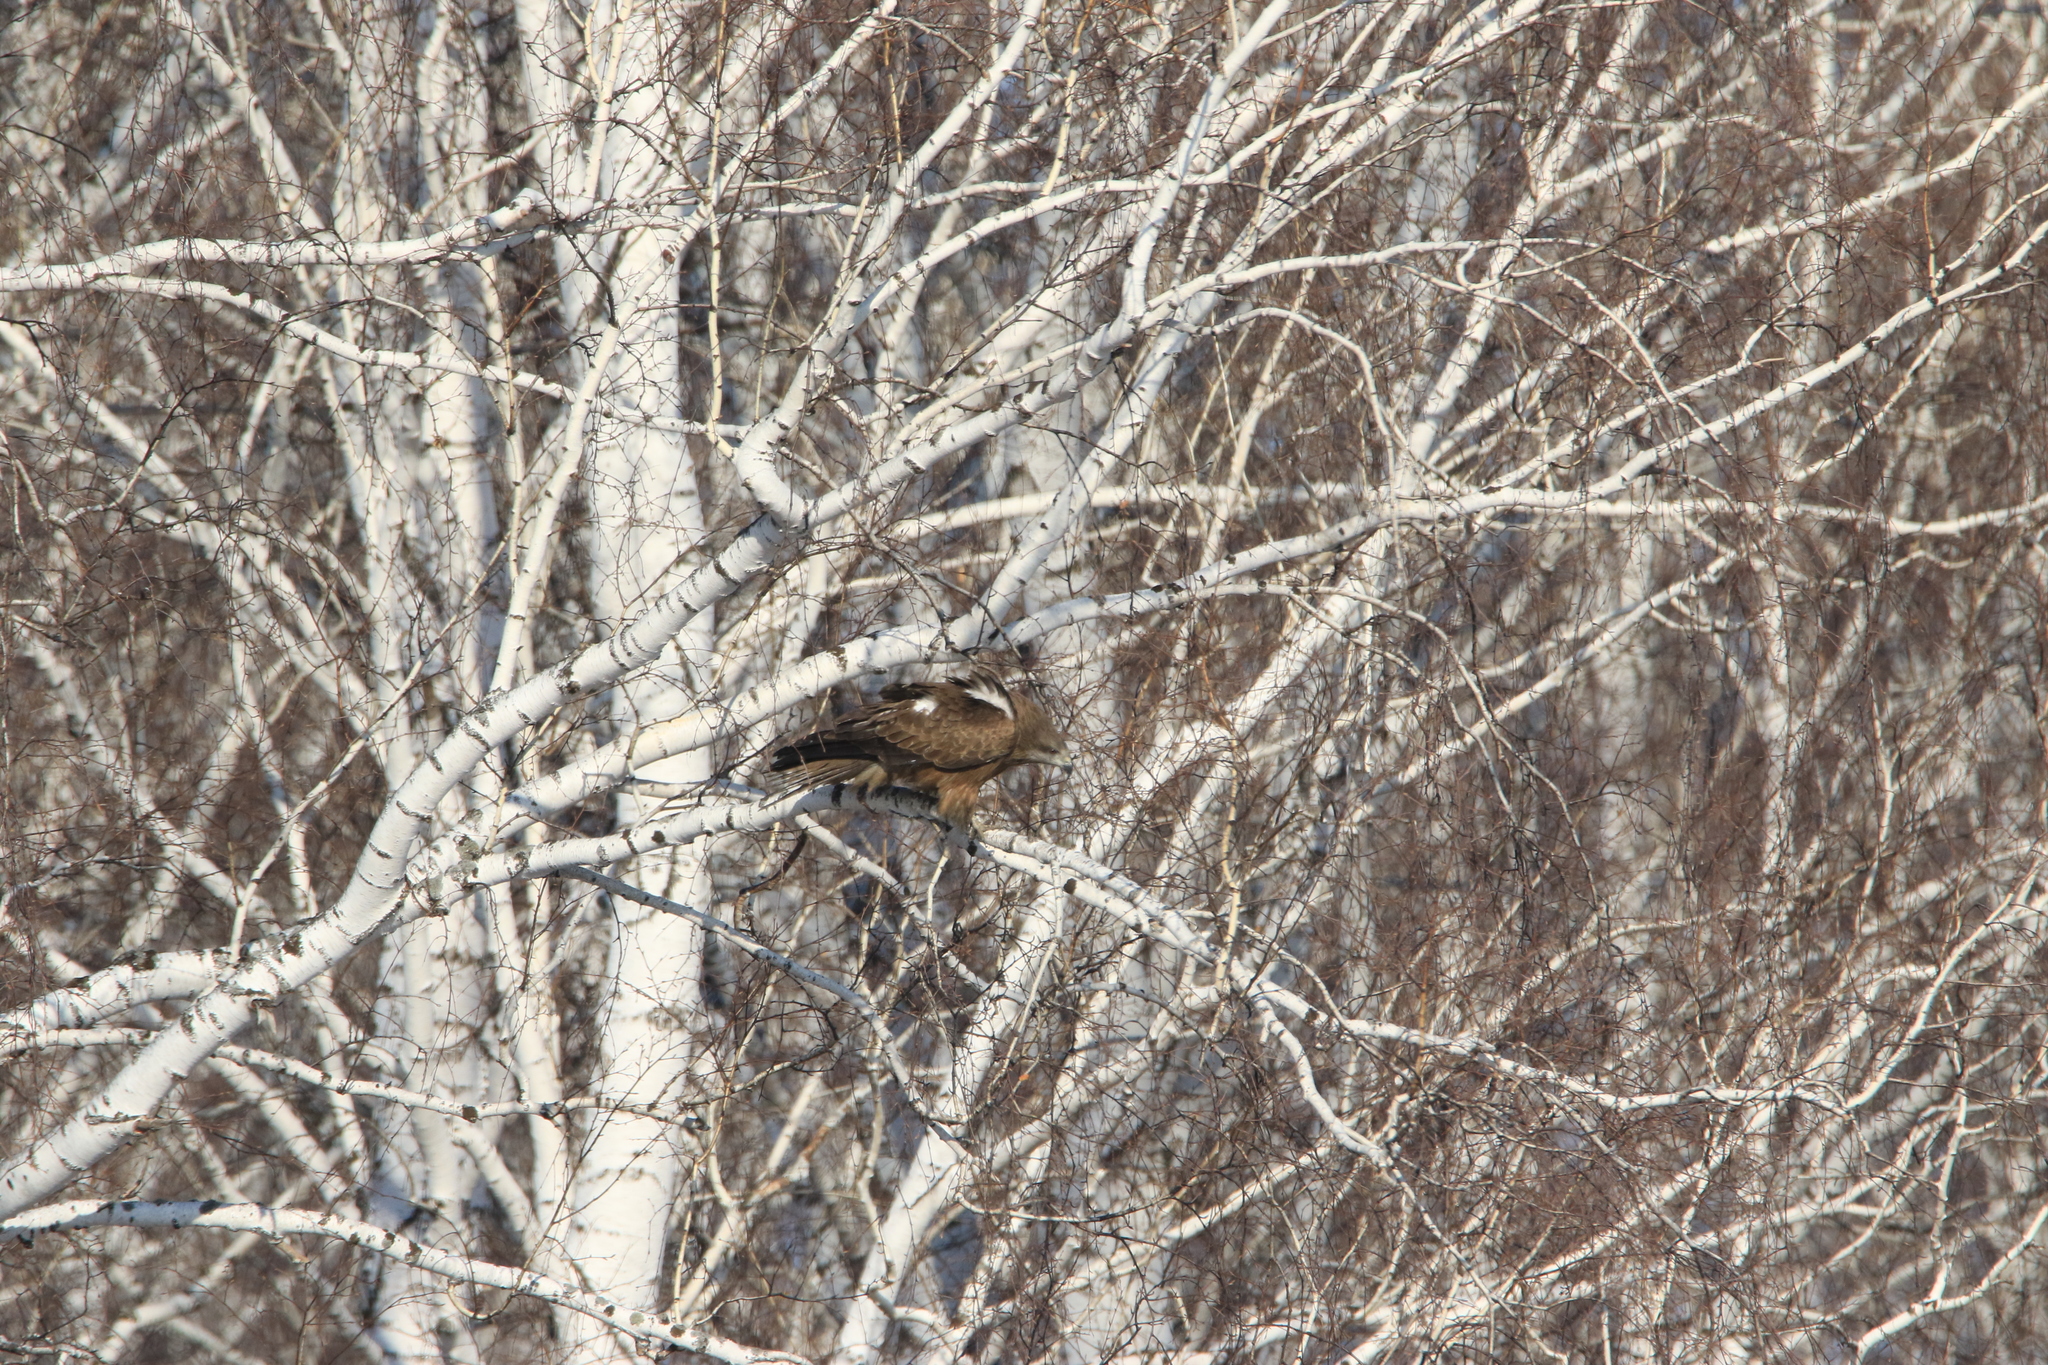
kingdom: Animalia
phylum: Chordata
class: Aves
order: Accipitriformes
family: Accipitridae
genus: Milvus
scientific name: Milvus migrans
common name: Black kite
